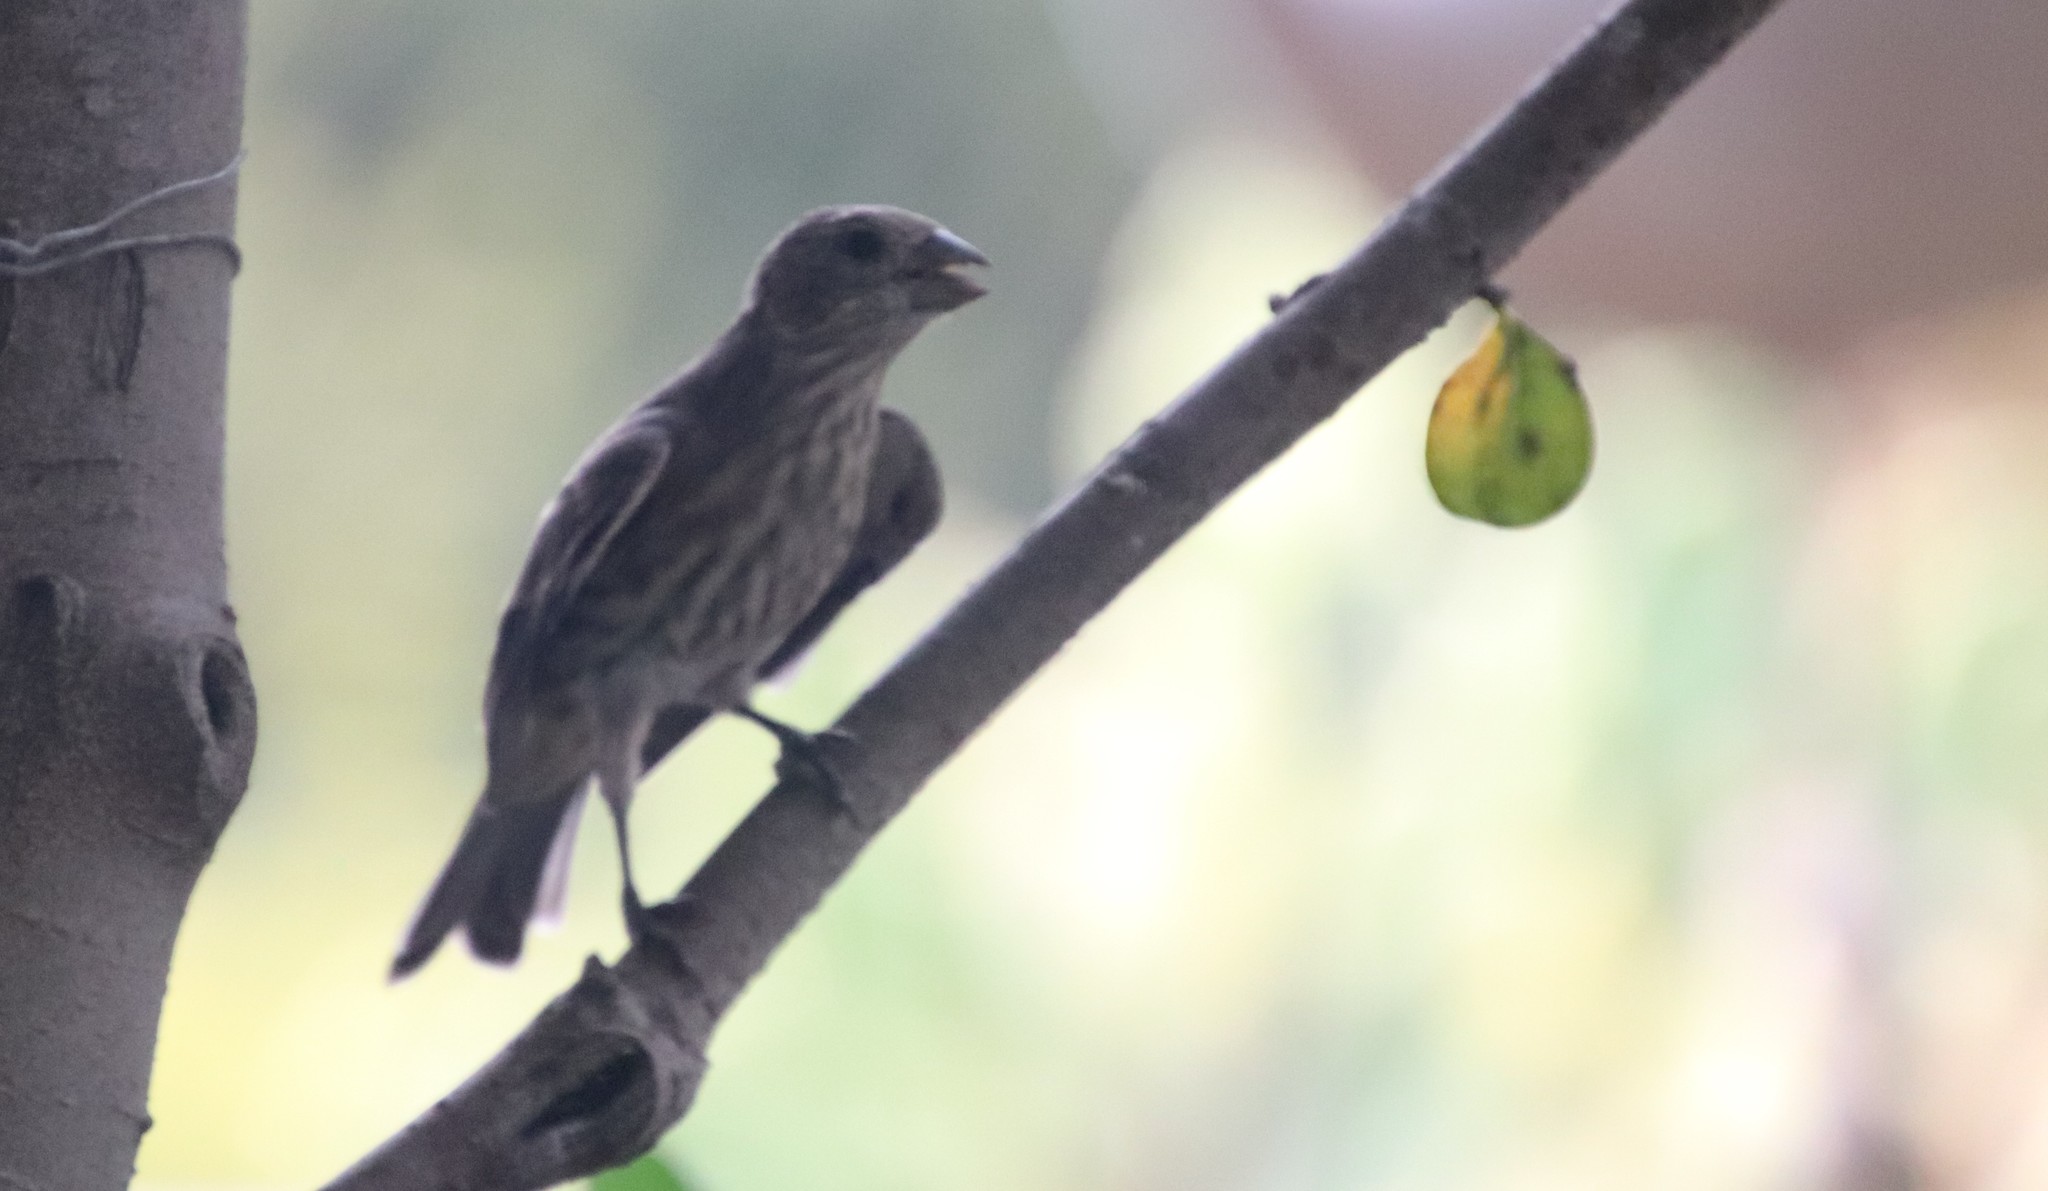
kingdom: Animalia
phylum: Chordata
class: Aves
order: Passeriformes
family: Fringillidae
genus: Haemorhous
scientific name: Haemorhous mexicanus
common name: House finch
